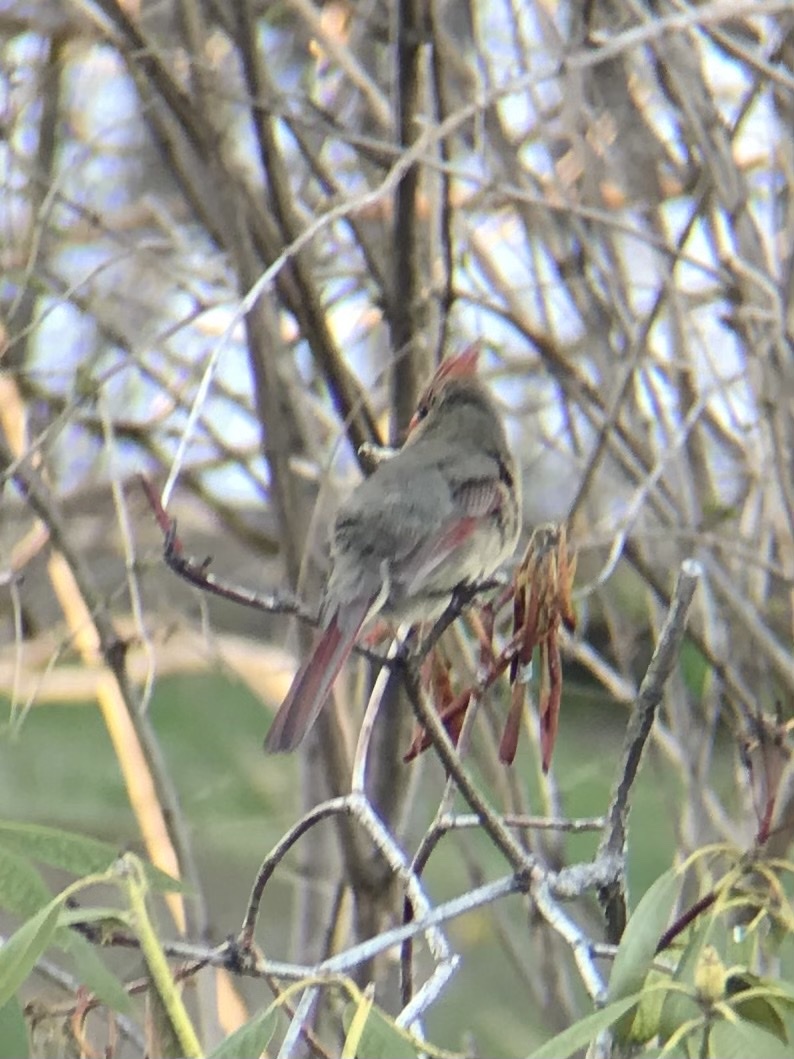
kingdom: Animalia
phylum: Chordata
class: Aves
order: Passeriformes
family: Cardinalidae
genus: Cardinalis
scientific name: Cardinalis cardinalis
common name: Northern cardinal
